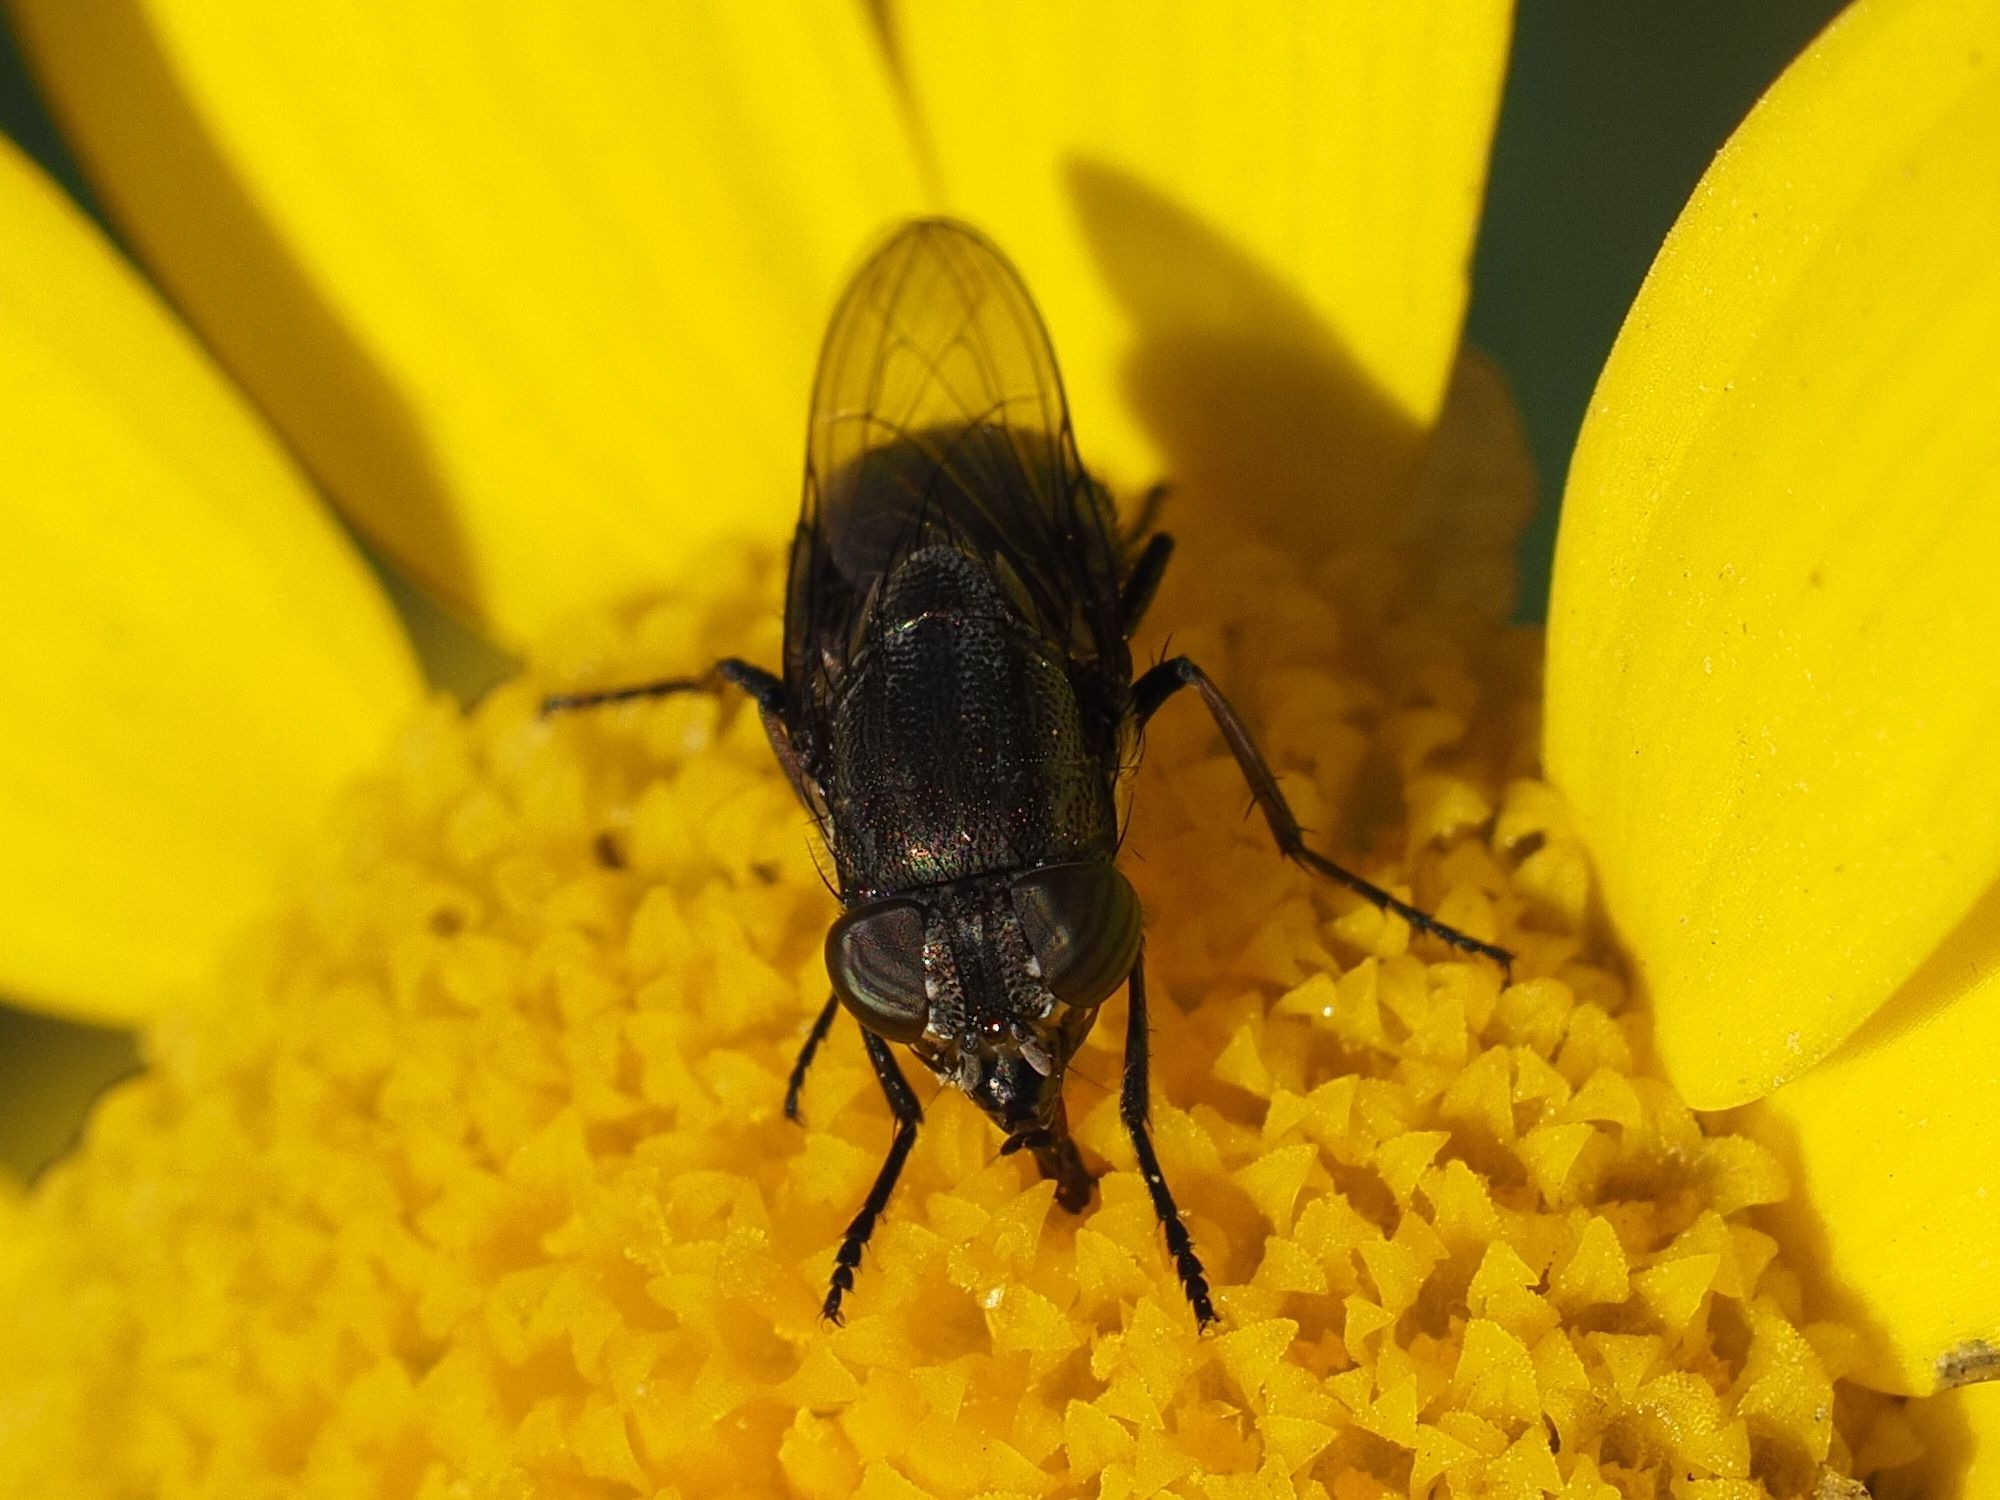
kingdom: Animalia
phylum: Arthropoda
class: Insecta
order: Diptera
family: Calliphoridae
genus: Stomorhina
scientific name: Stomorhina lunata
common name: Locust blowfly
